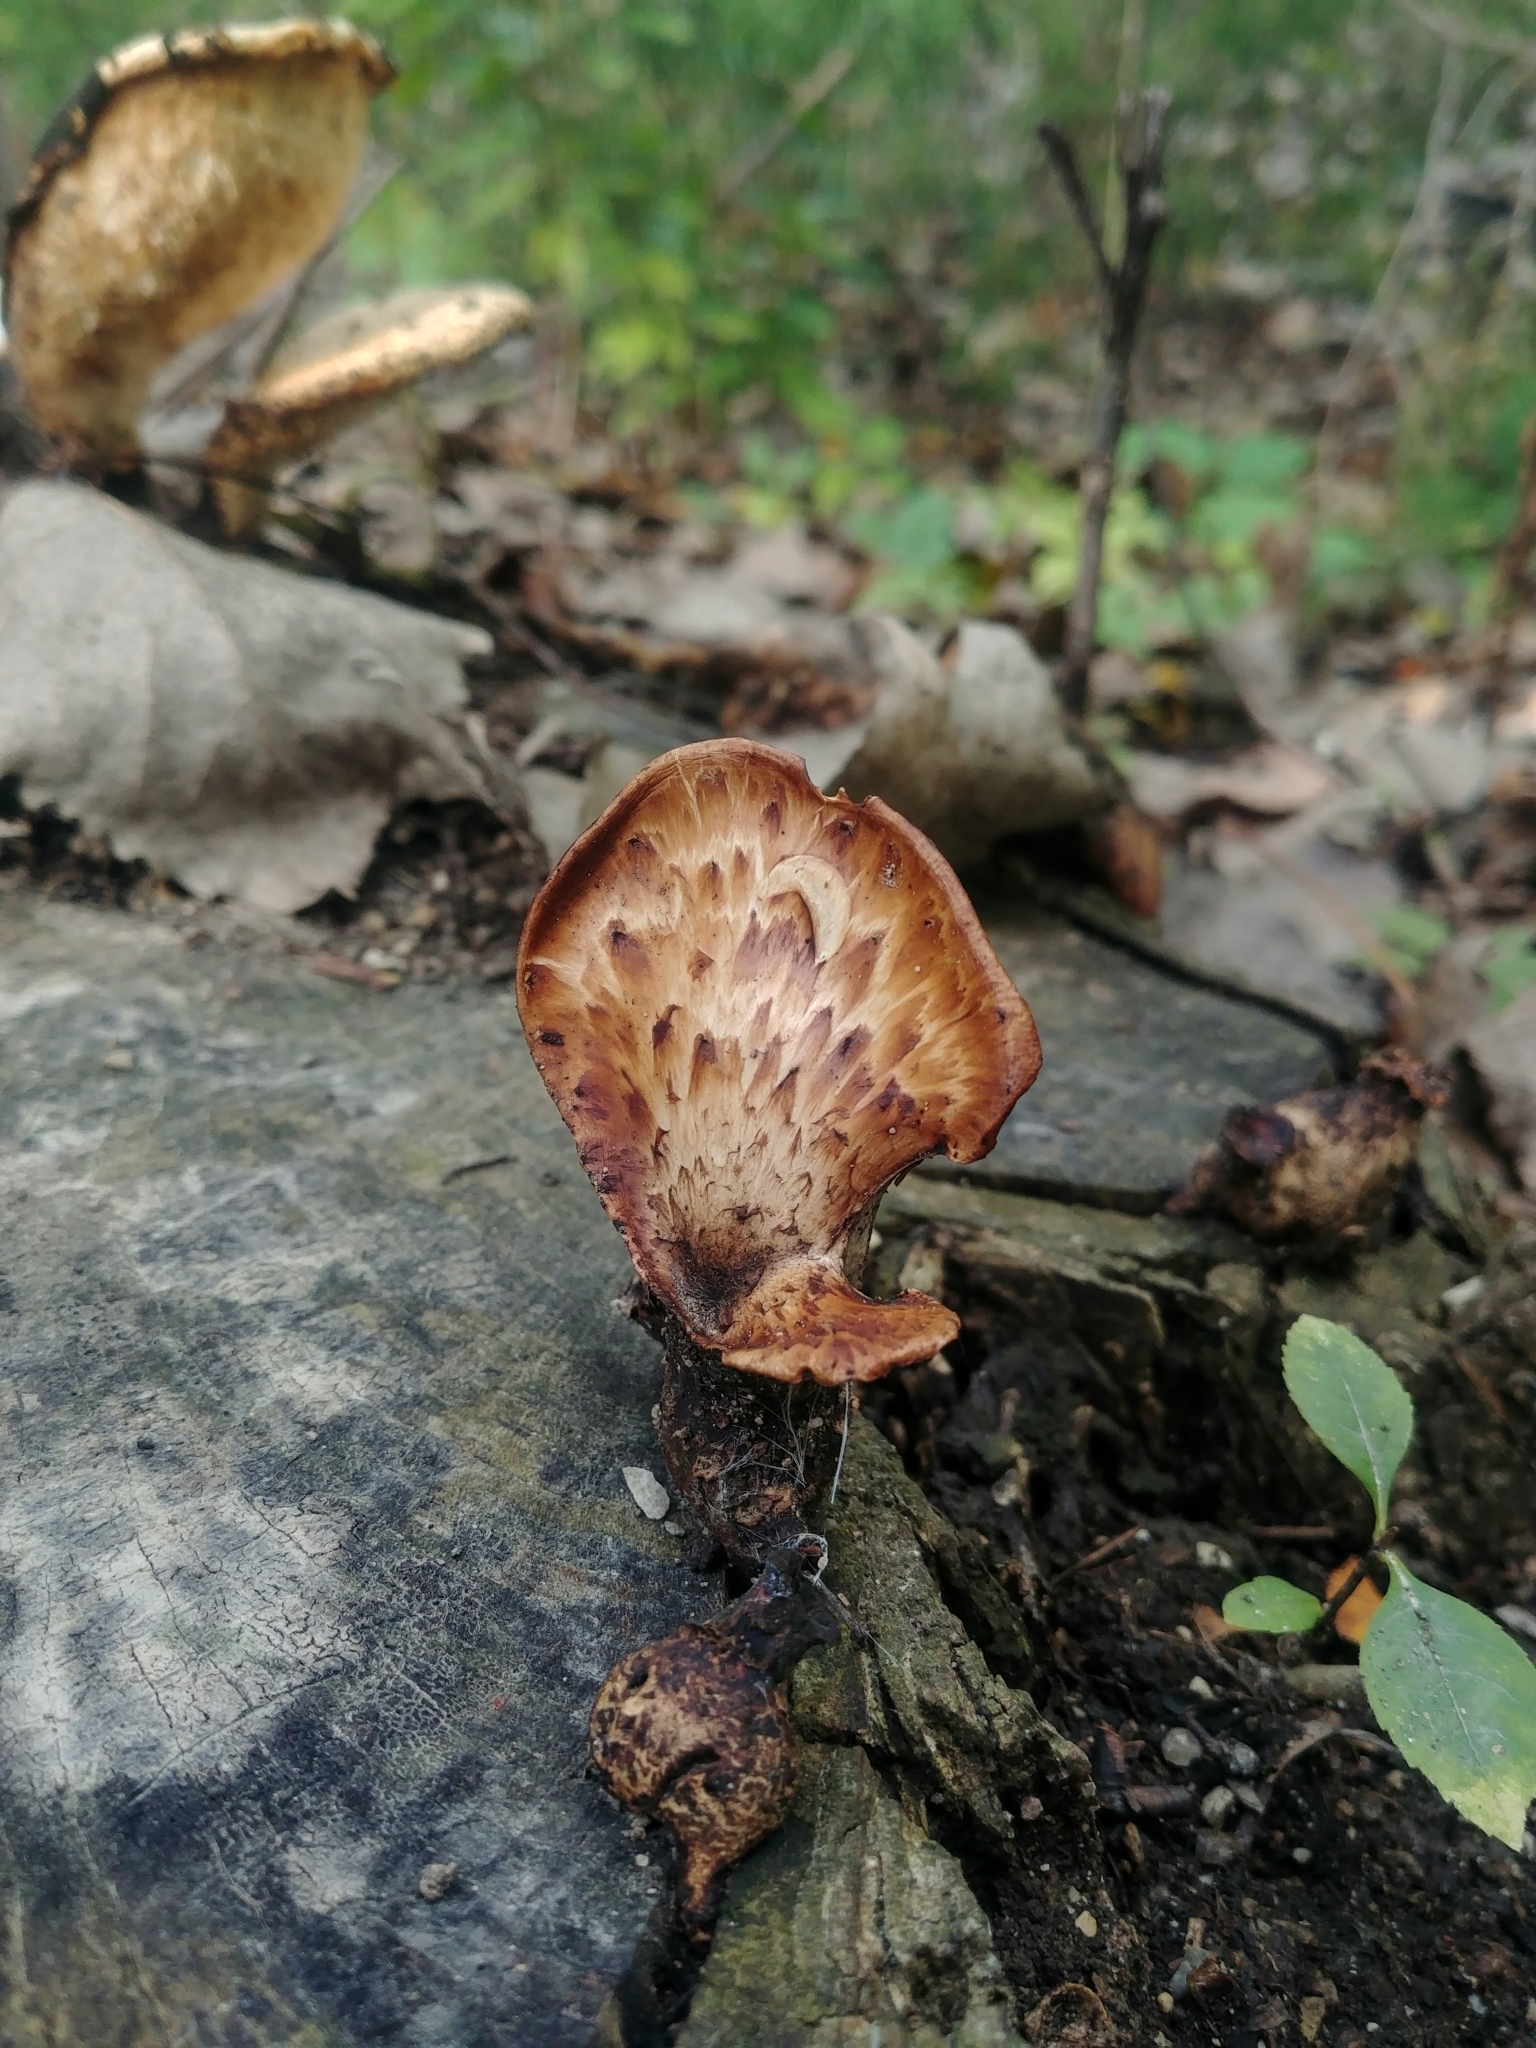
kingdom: Fungi
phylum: Basidiomycota
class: Agaricomycetes
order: Polyporales
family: Polyporaceae
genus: Cerioporus
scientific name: Cerioporus squamosus
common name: Dryad's saddle
